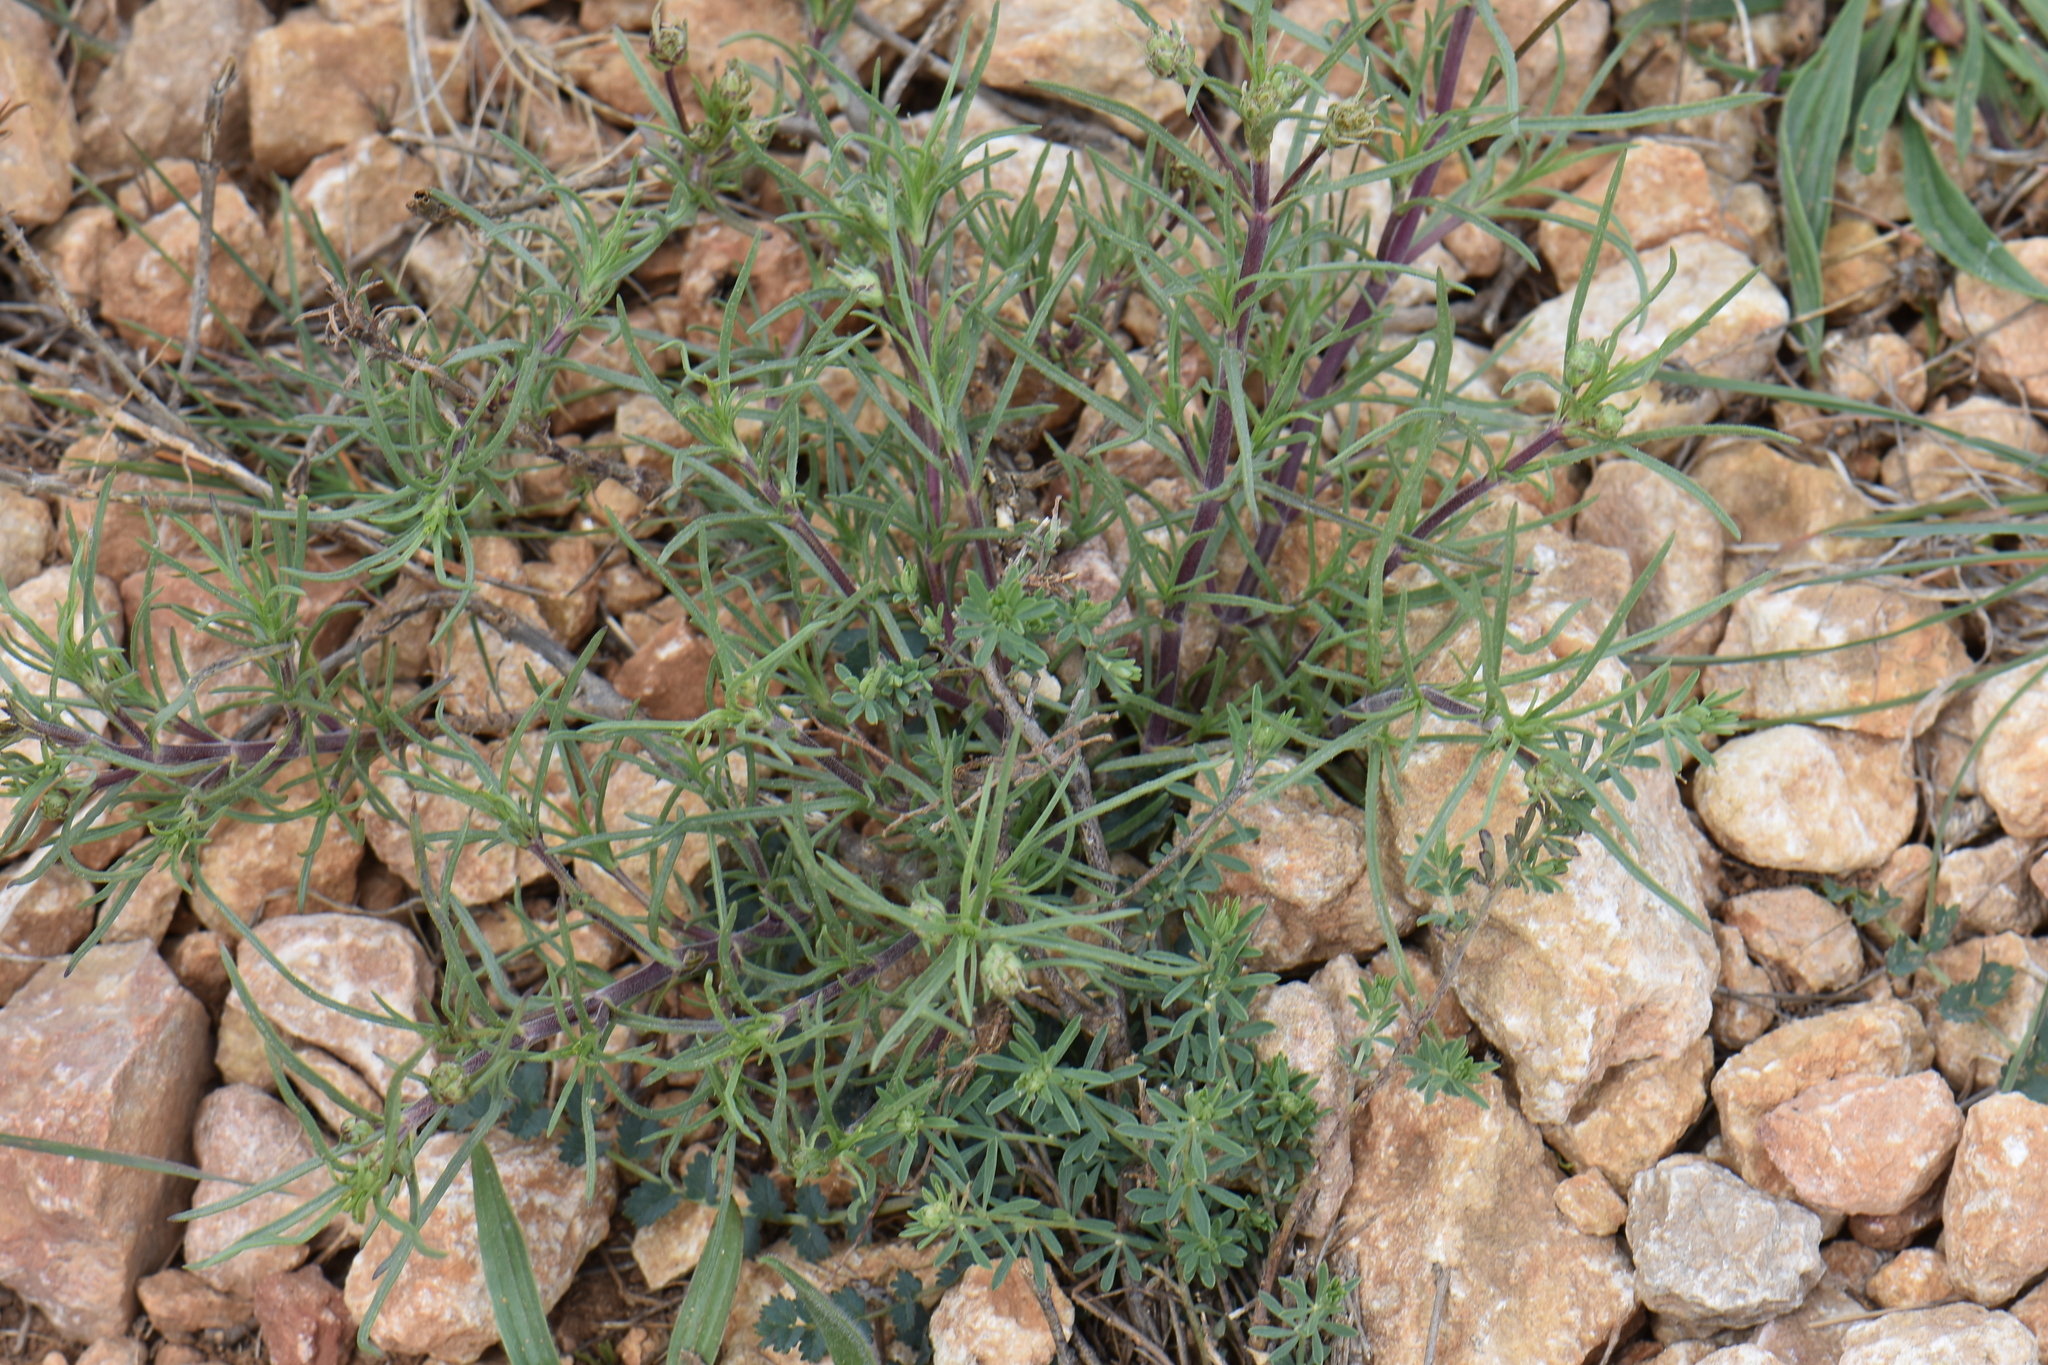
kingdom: Plantae
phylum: Tracheophyta
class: Magnoliopsida
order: Lamiales
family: Plantaginaceae
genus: Plantago
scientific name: Plantago sempervirens
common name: Shrubby plantain
